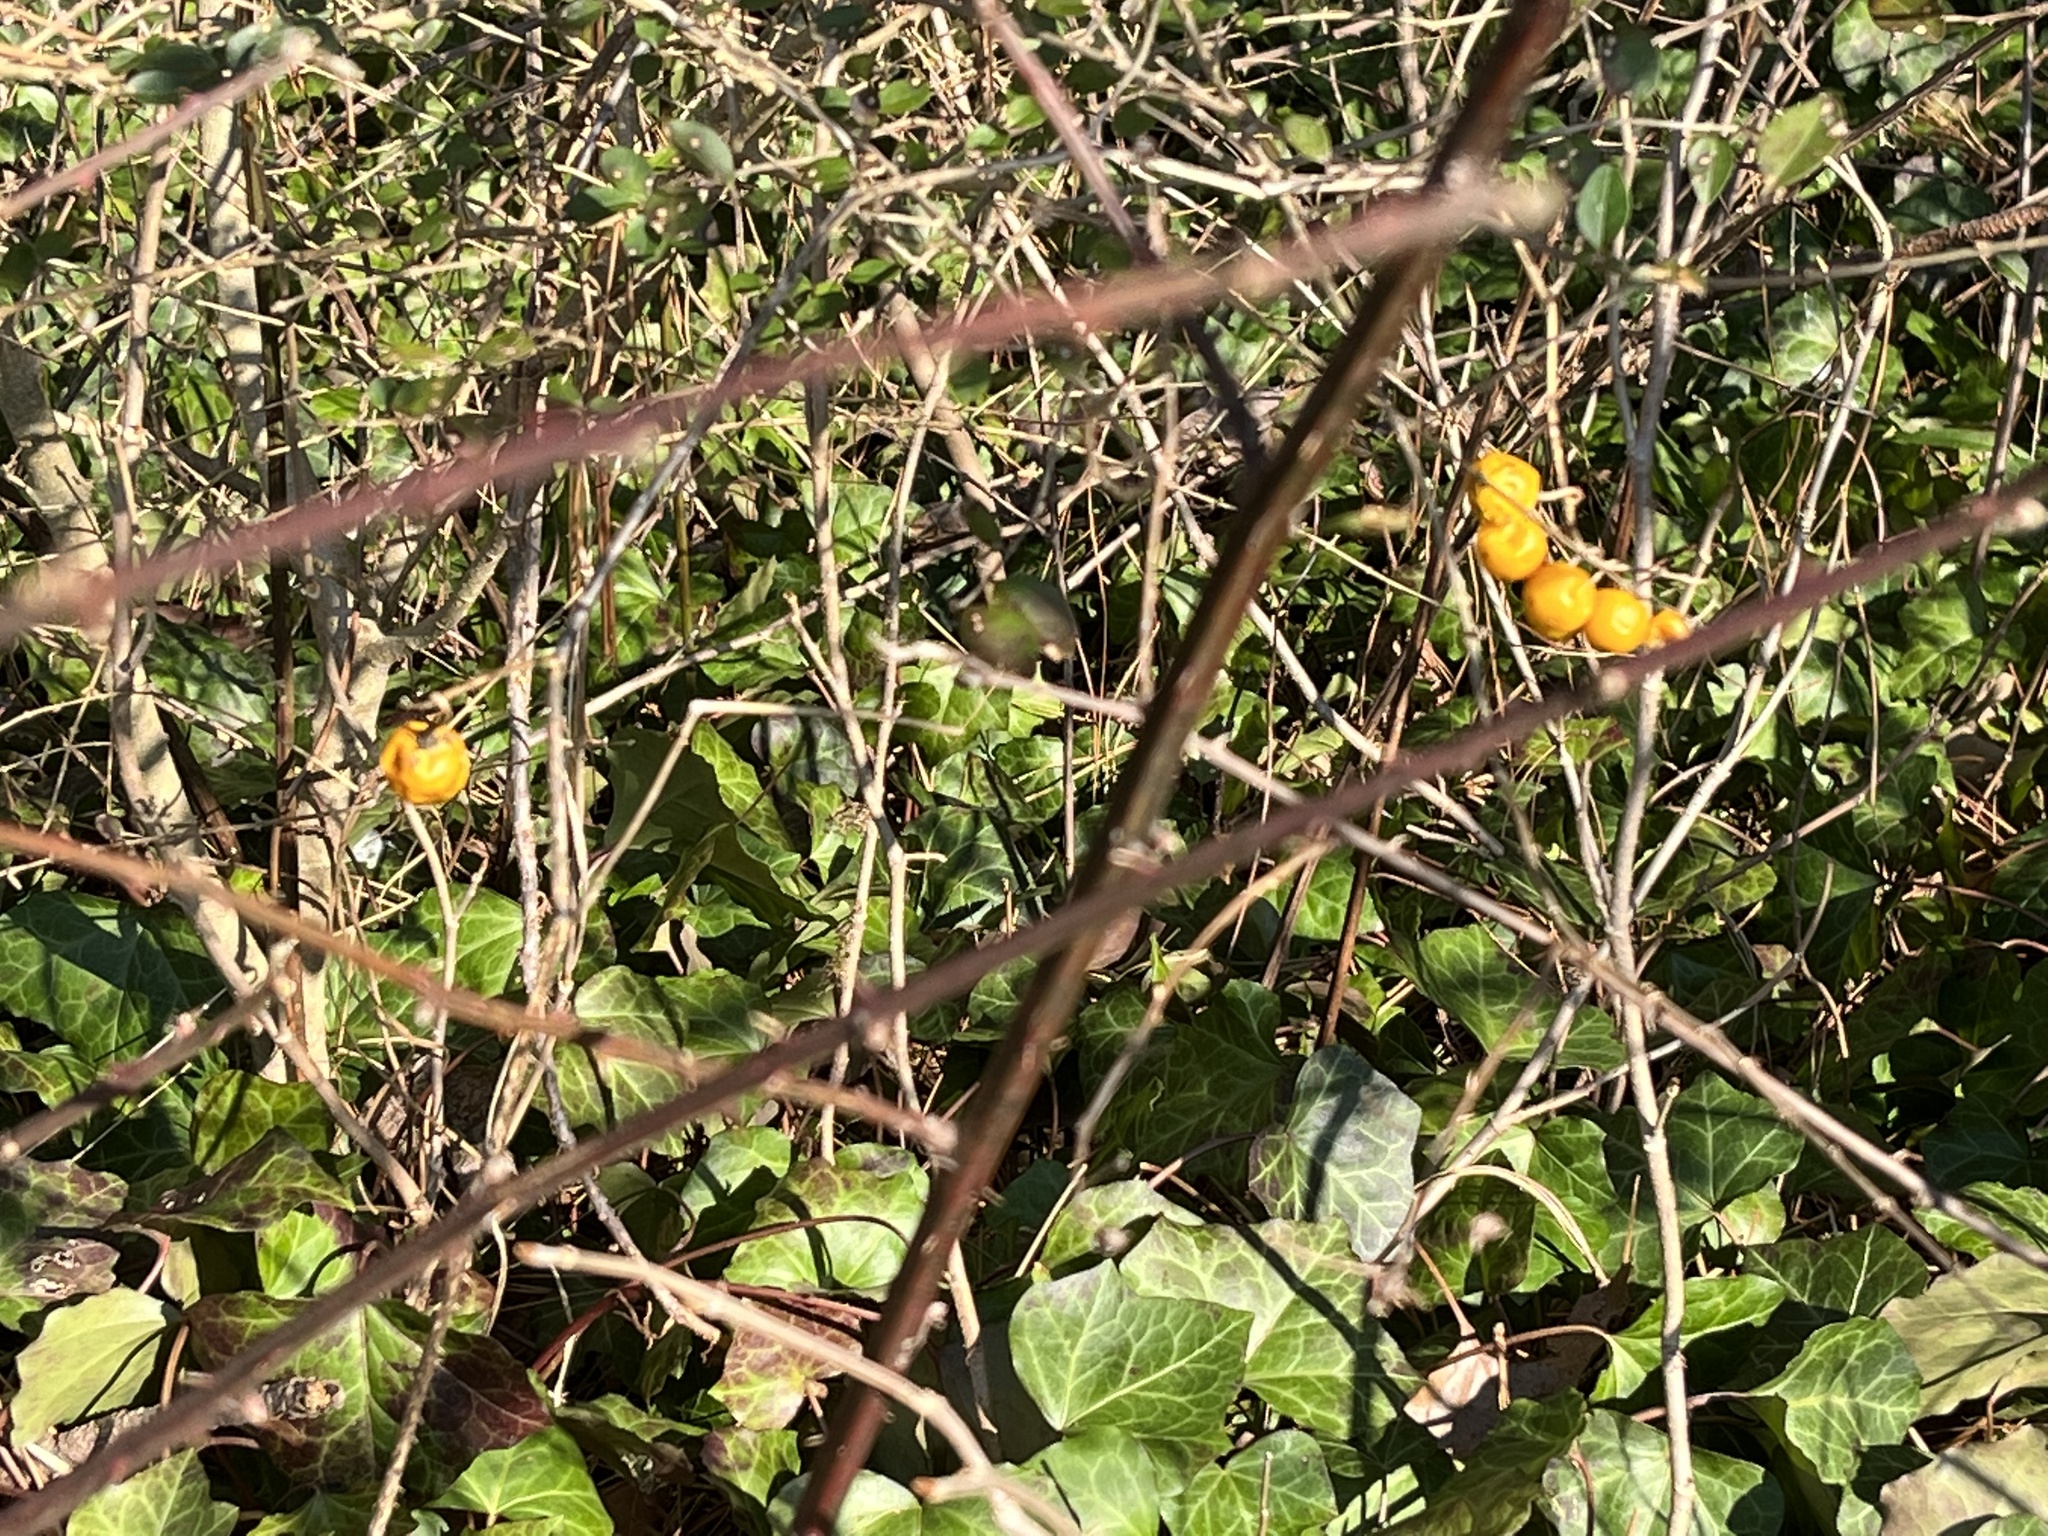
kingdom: Plantae
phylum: Tracheophyta
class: Magnoliopsida
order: Solanales
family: Solanaceae
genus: Solanum
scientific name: Solanum carolinense
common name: Horse-nettle
